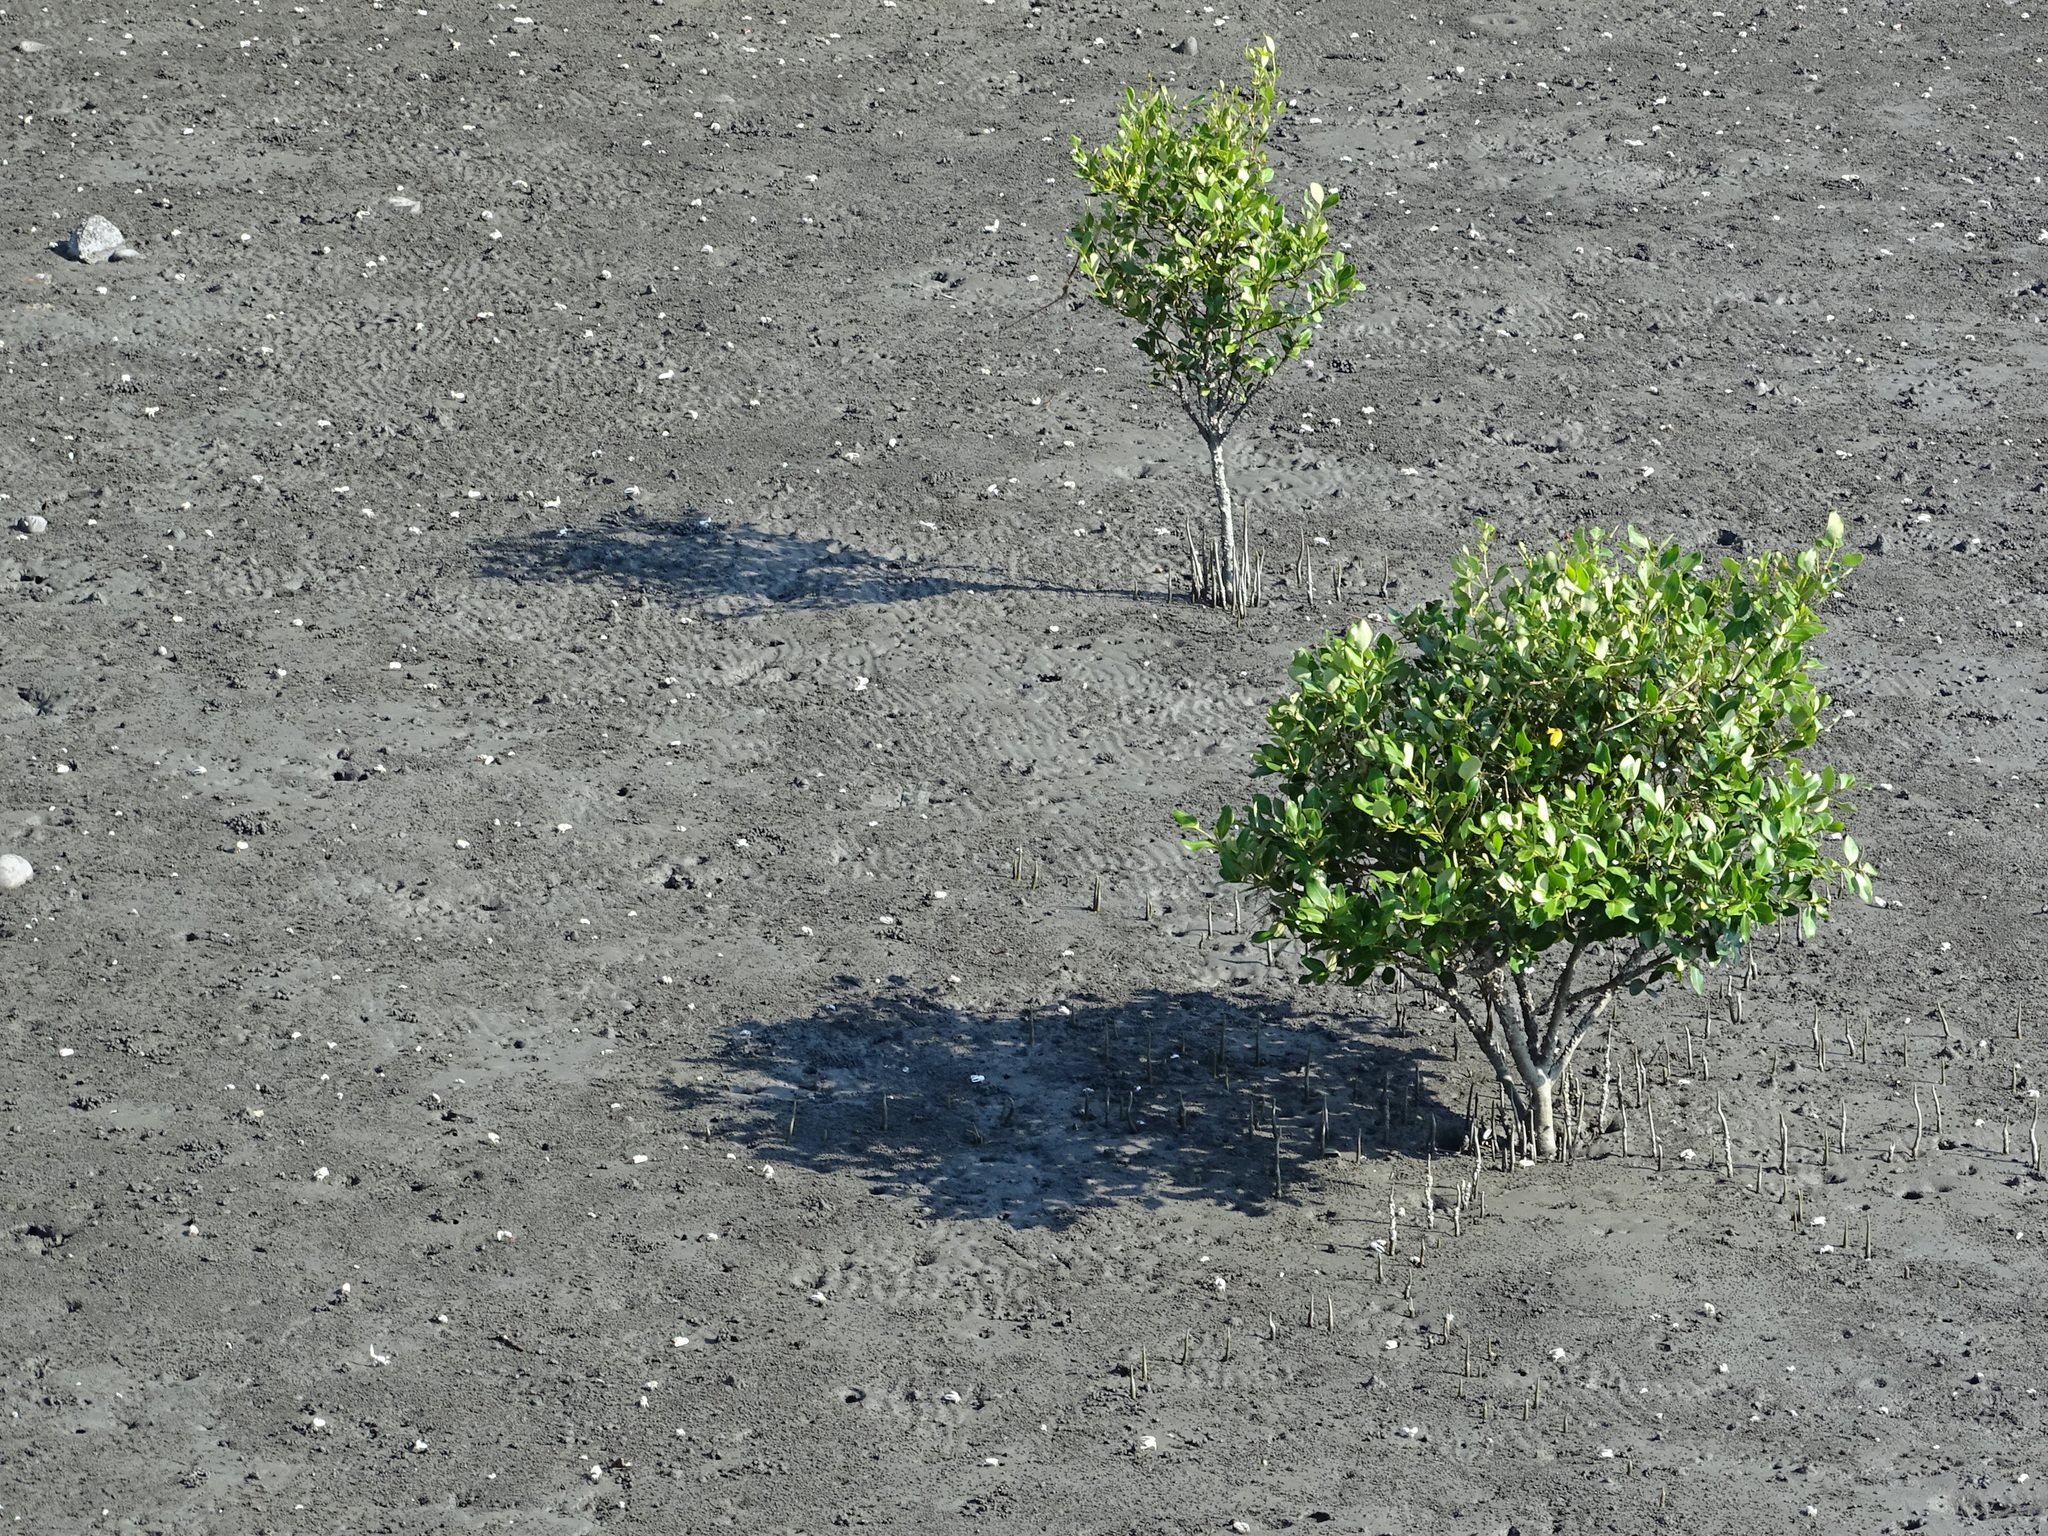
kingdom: Plantae
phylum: Tracheophyta
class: Magnoliopsida
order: Lamiales
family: Acanthaceae
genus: Avicennia
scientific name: Avicennia marina
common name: Gray mangrove
